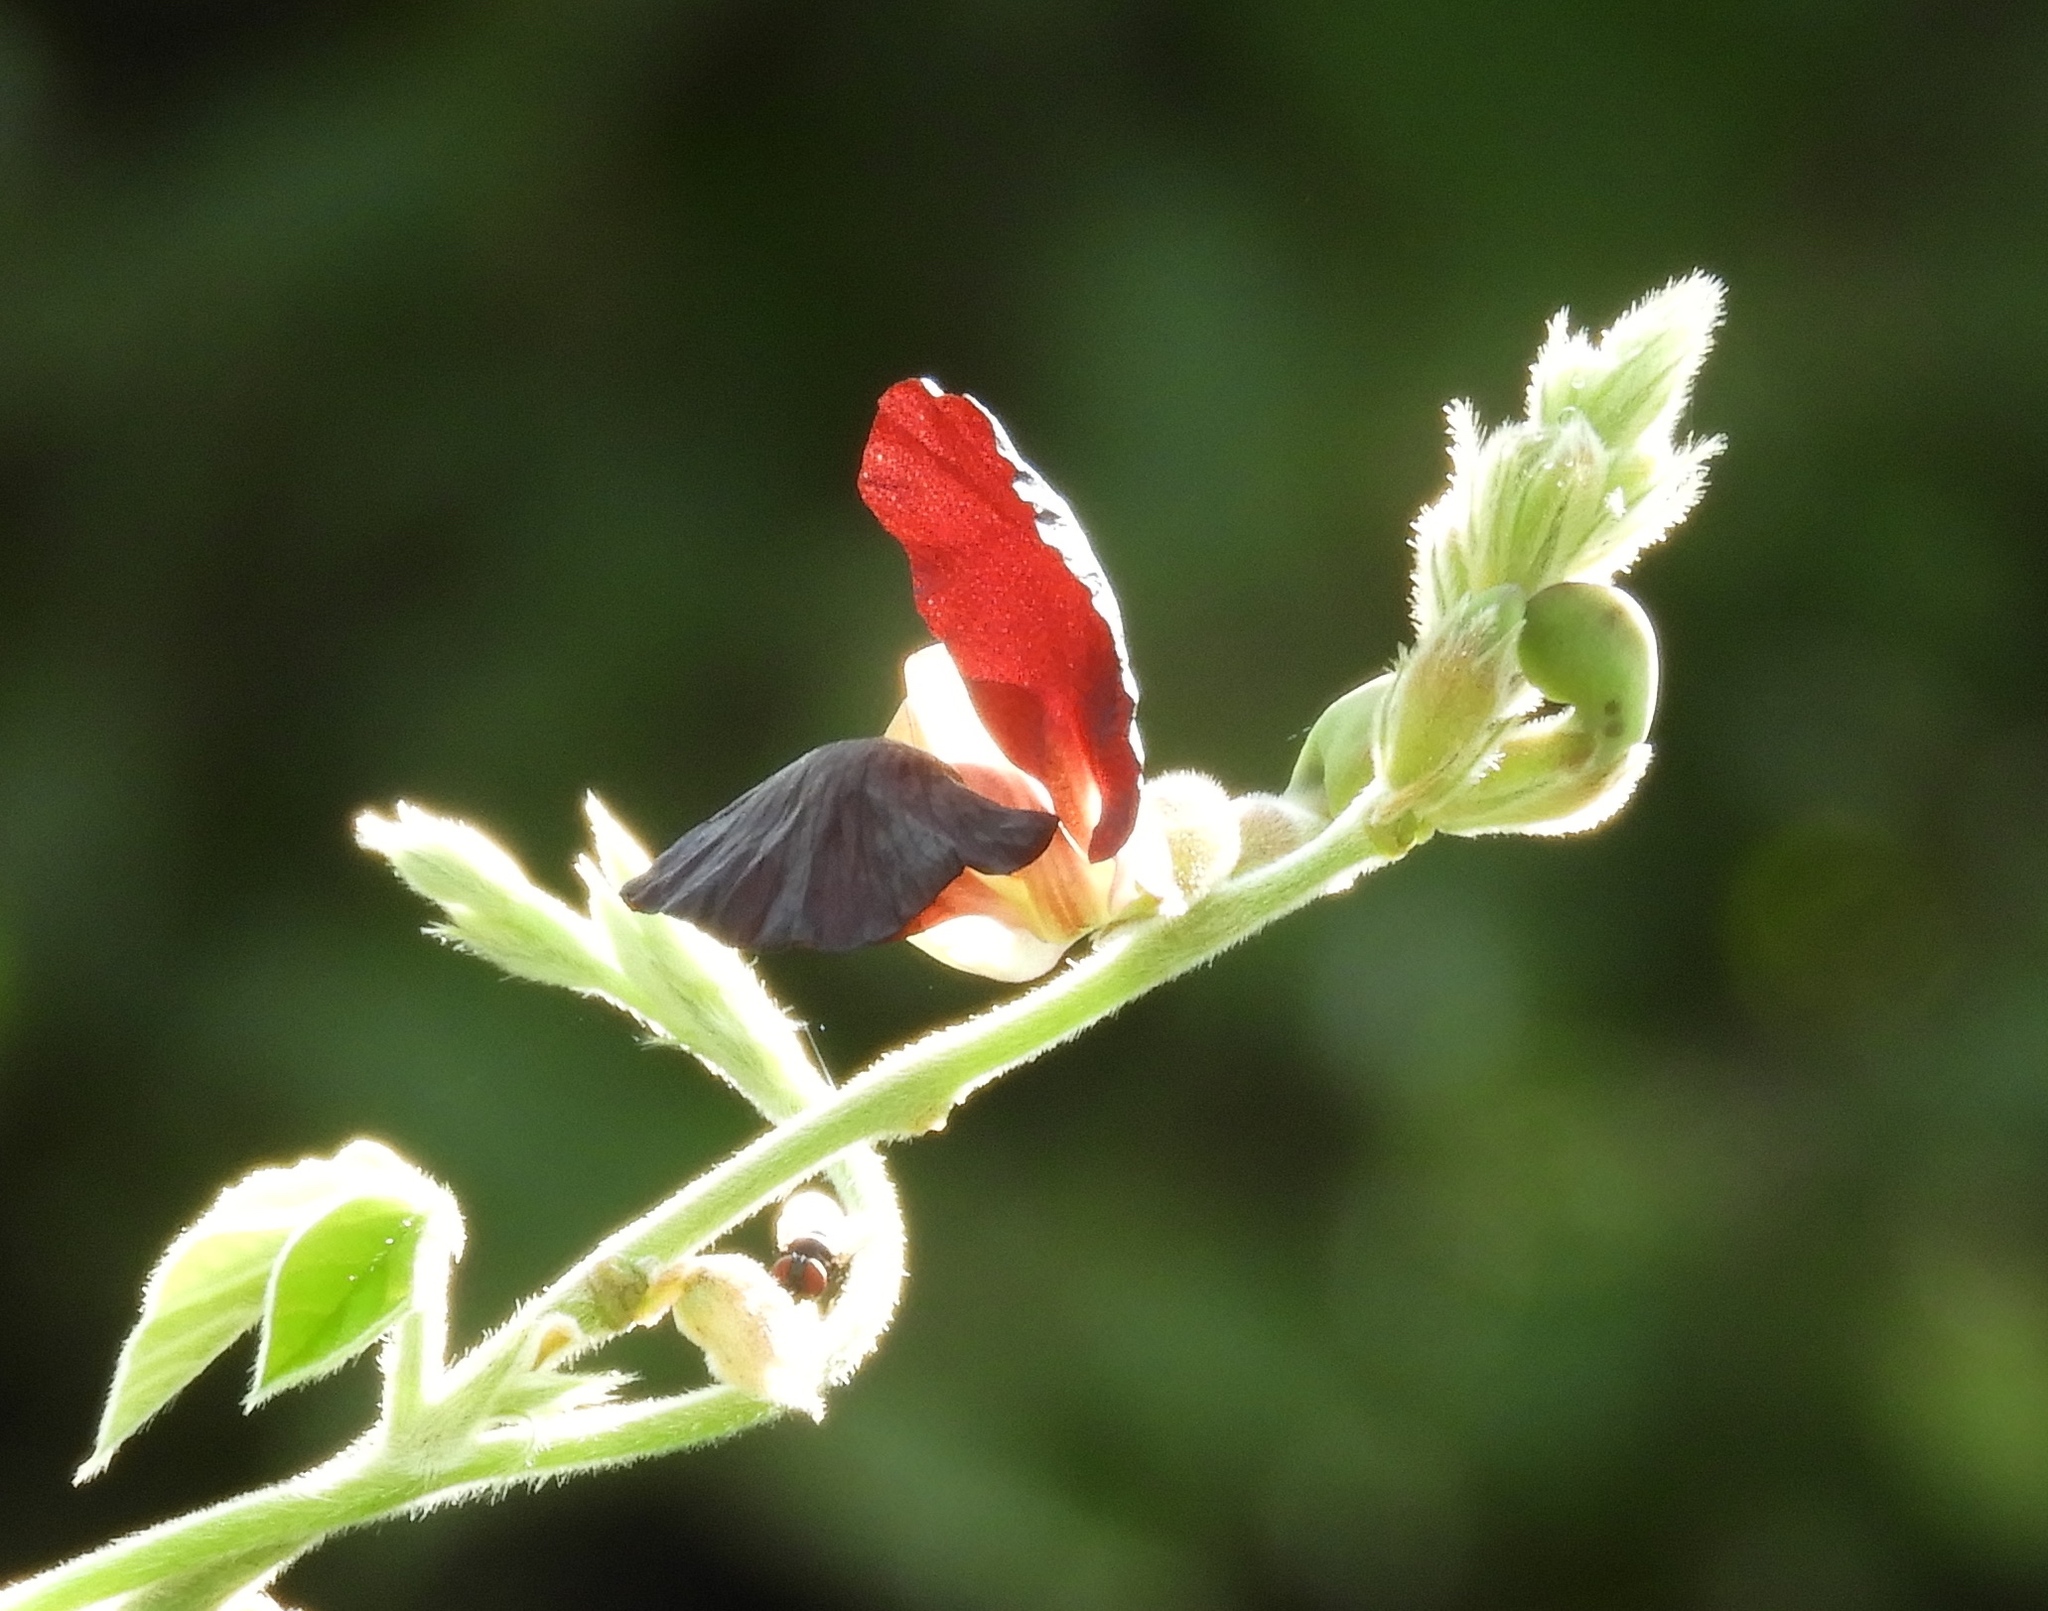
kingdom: Plantae
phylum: Tracheophyta
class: Magnoliopsida
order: Fabales
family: Fabaceae
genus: Macroptilium
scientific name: Macroptilium atropurpureum
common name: Purple bushbean
